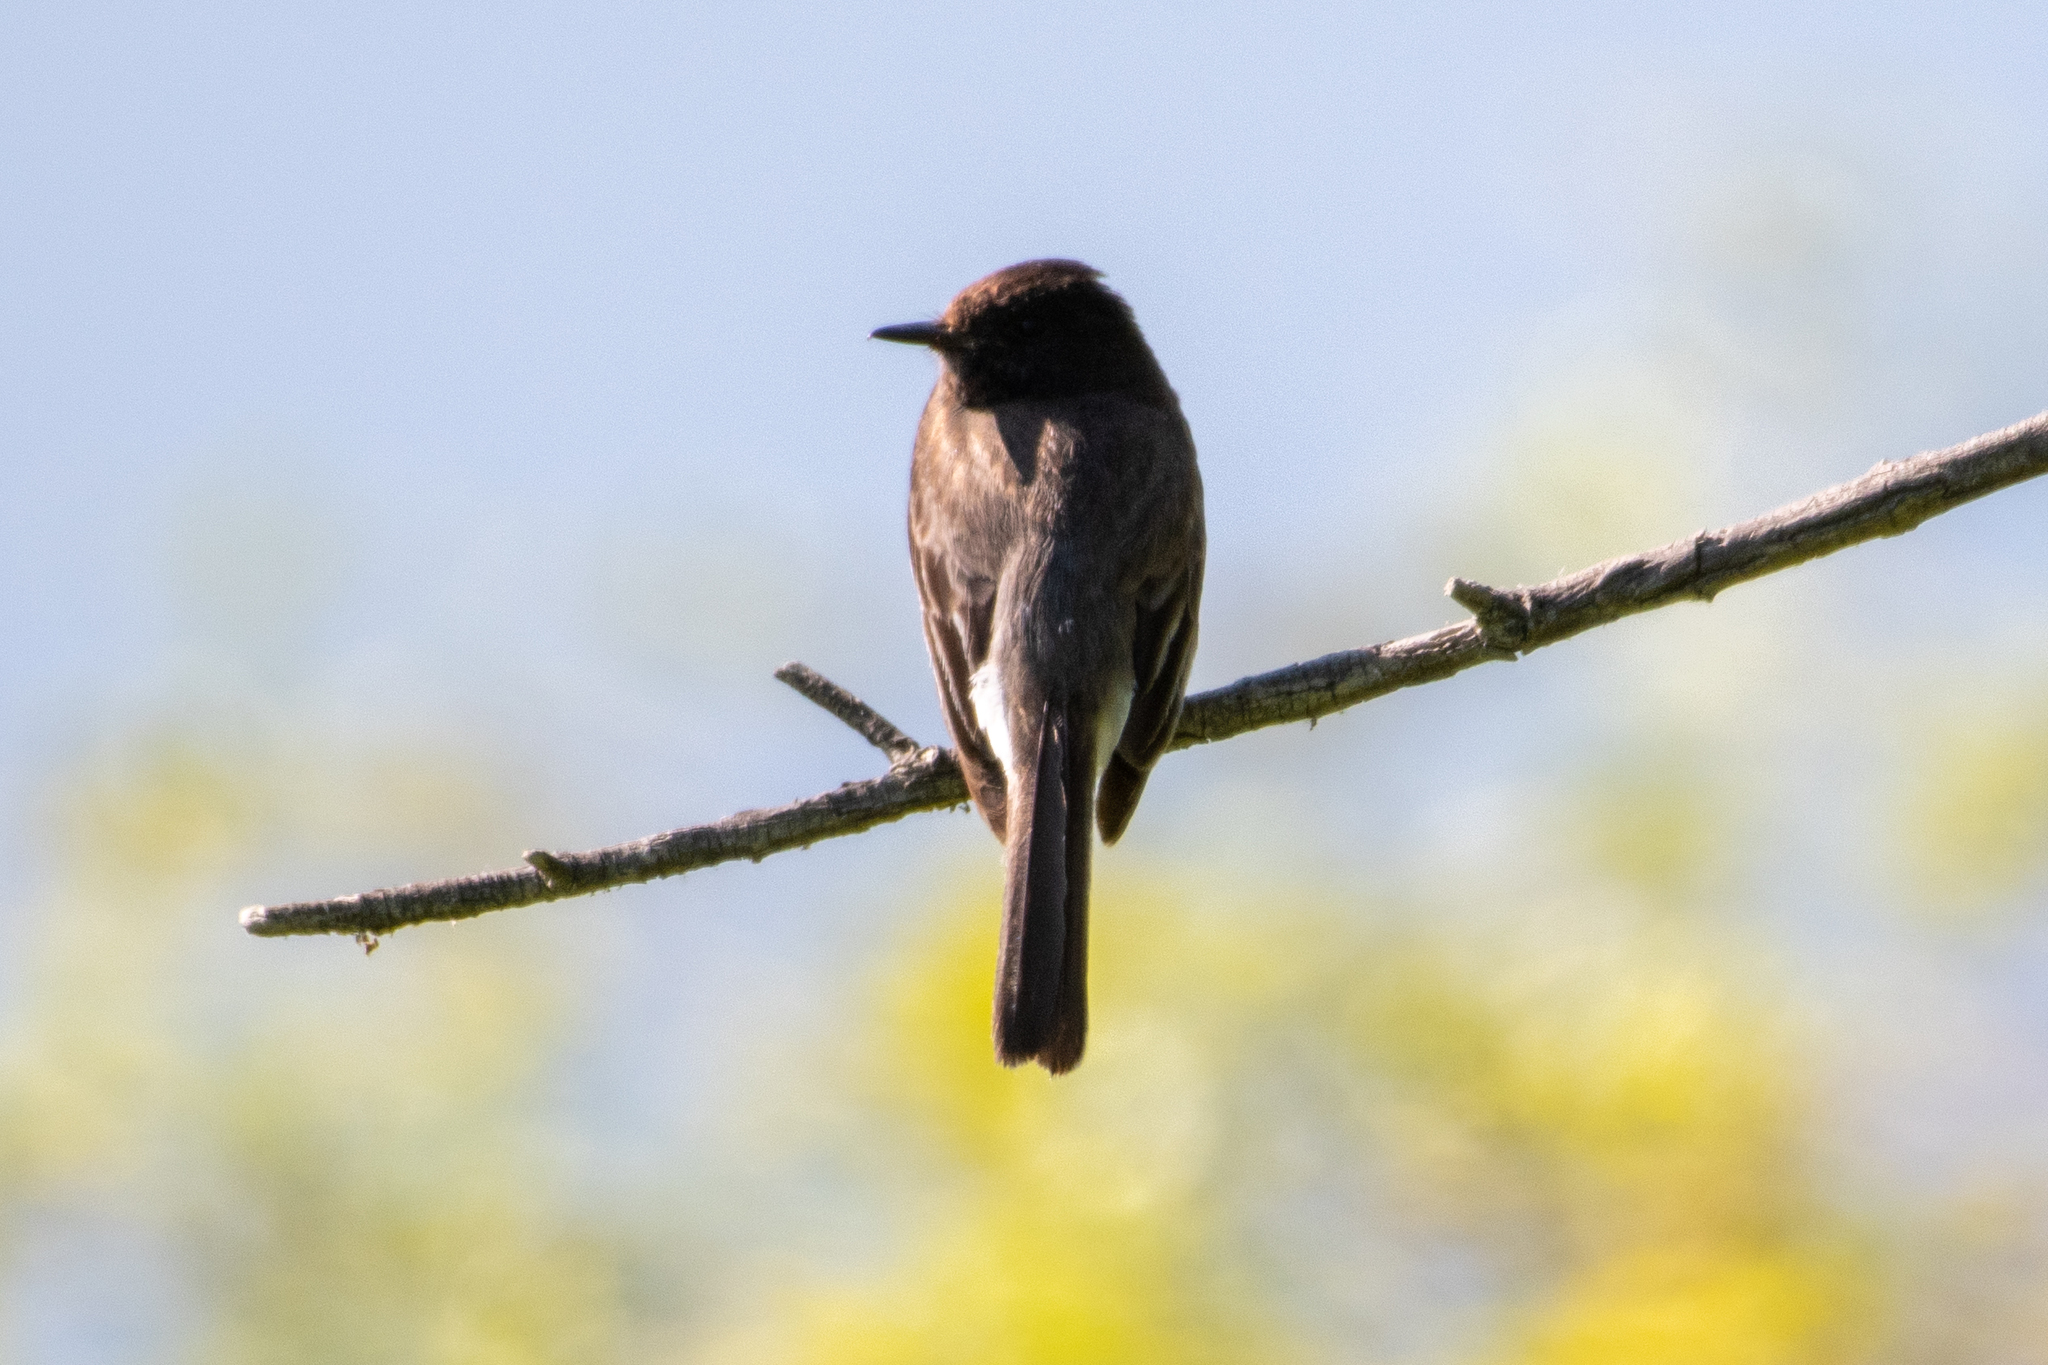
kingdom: Animalia
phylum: Chordata
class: Aves
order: Passeriformes
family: Tyrannidae
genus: Sayornis
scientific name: Sayornis nigricans
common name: Black phoebe
